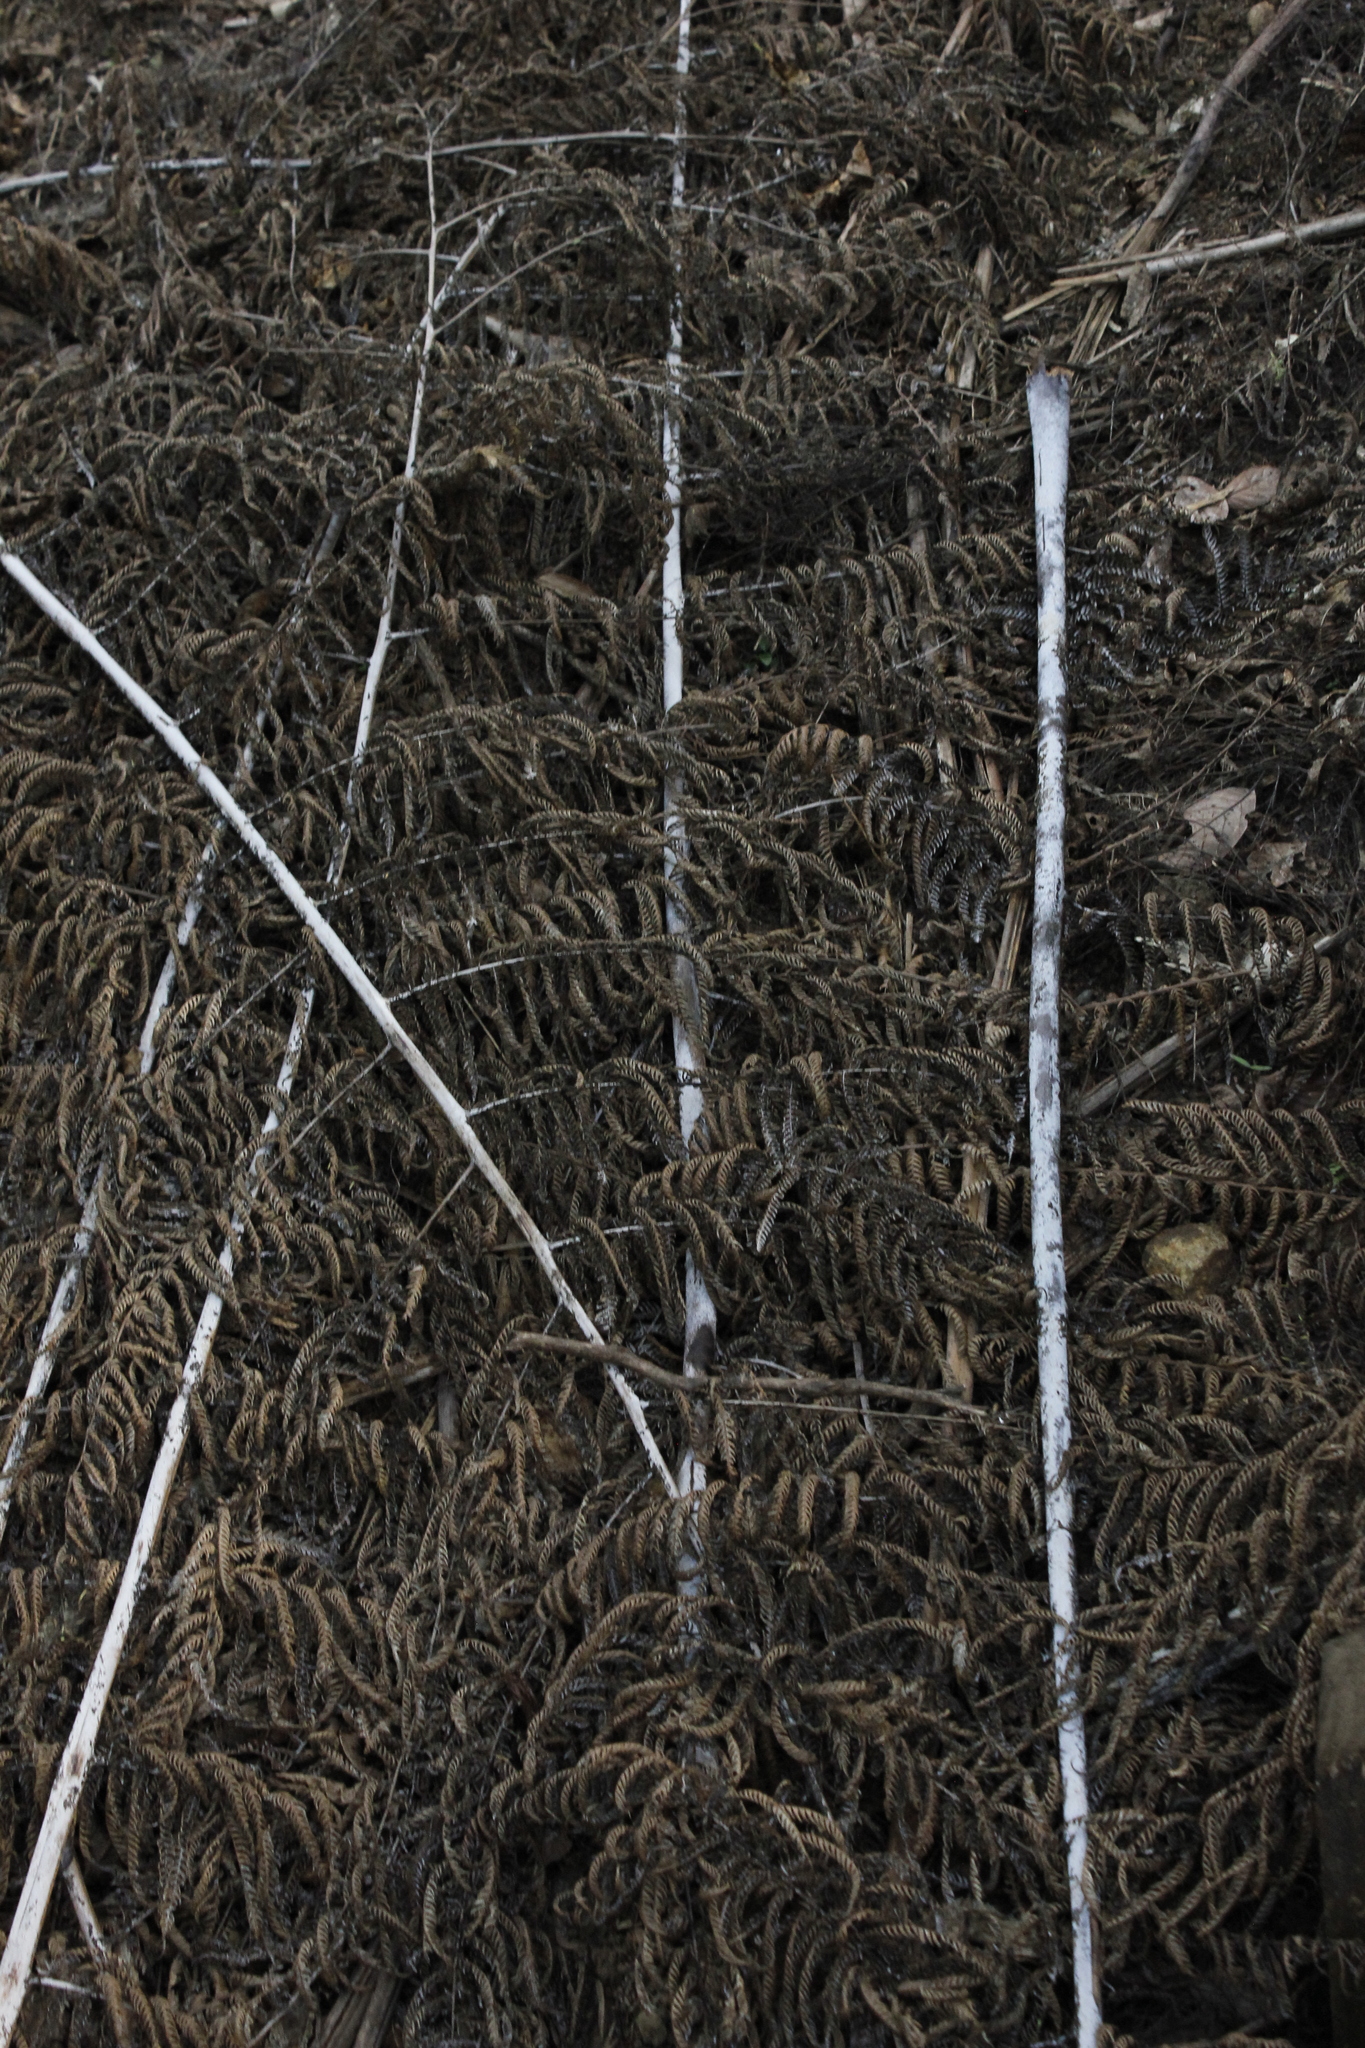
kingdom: Plantae
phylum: Tracheophyta
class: Polypodiopsida
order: Cyatheales
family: Cyatheaceae
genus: Alsophila
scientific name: Alsophila dealbata
